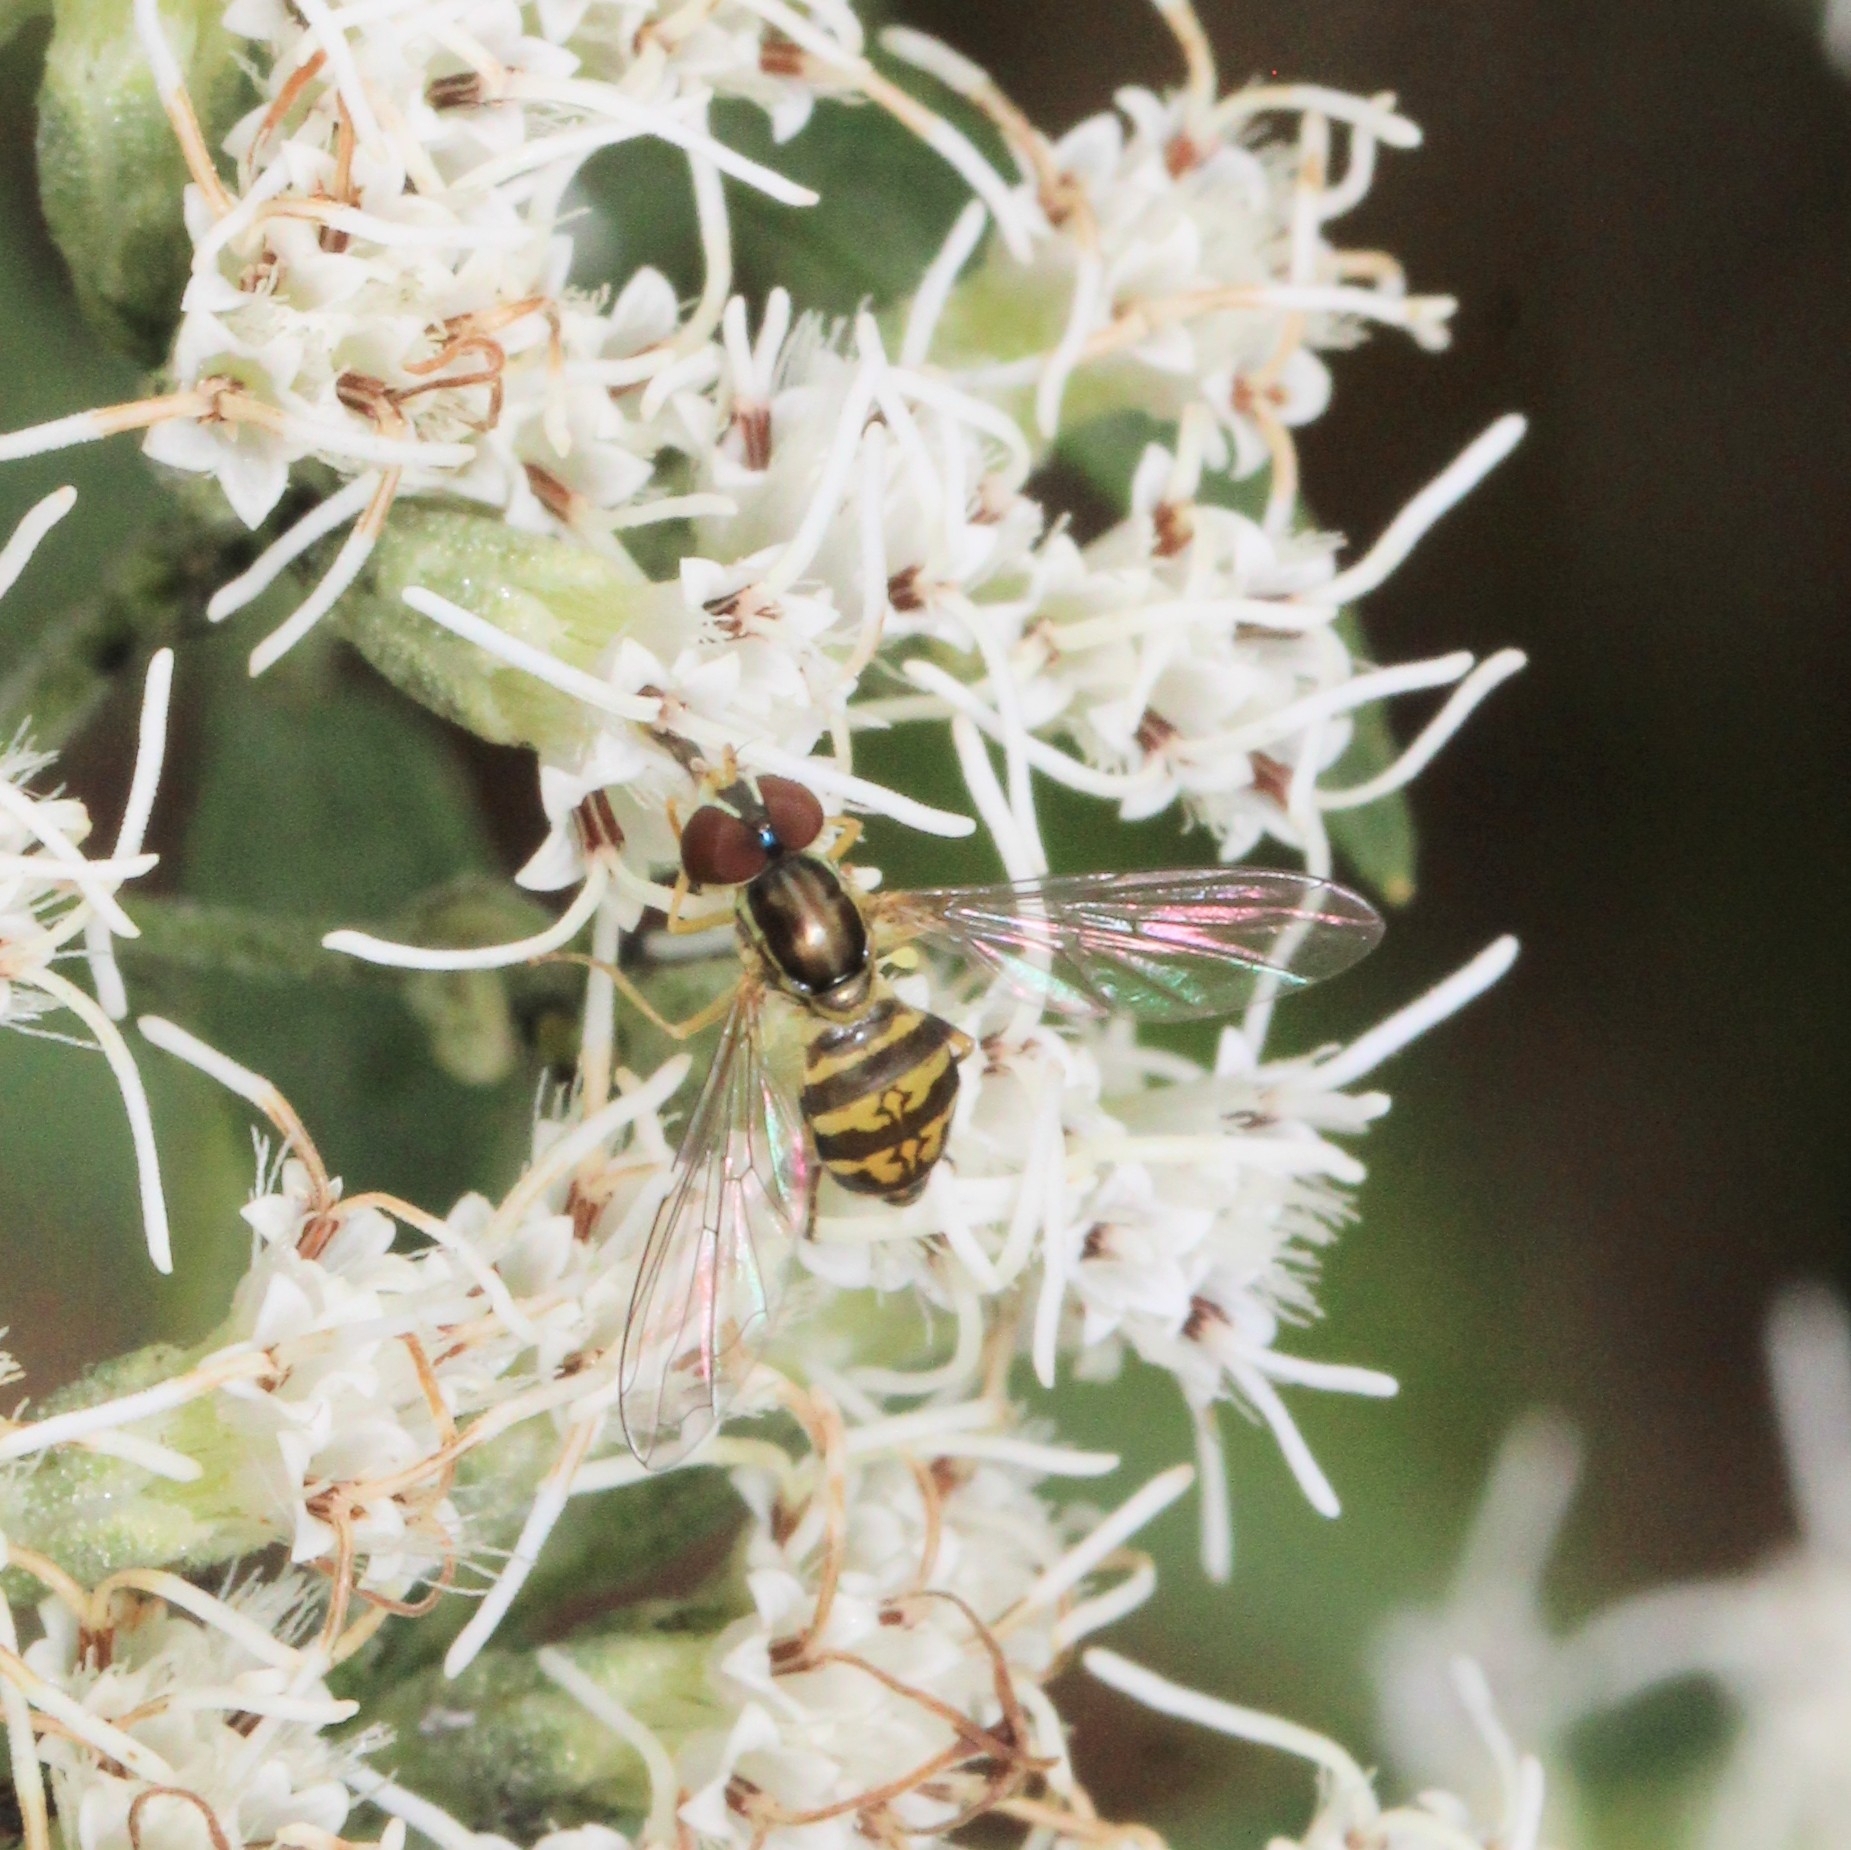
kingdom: Animalia
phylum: Arthropoda
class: Insecta
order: Diptera
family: Syrphidae
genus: Toxomerus
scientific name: Toxomerus geminatus
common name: Eastern calligrapher
